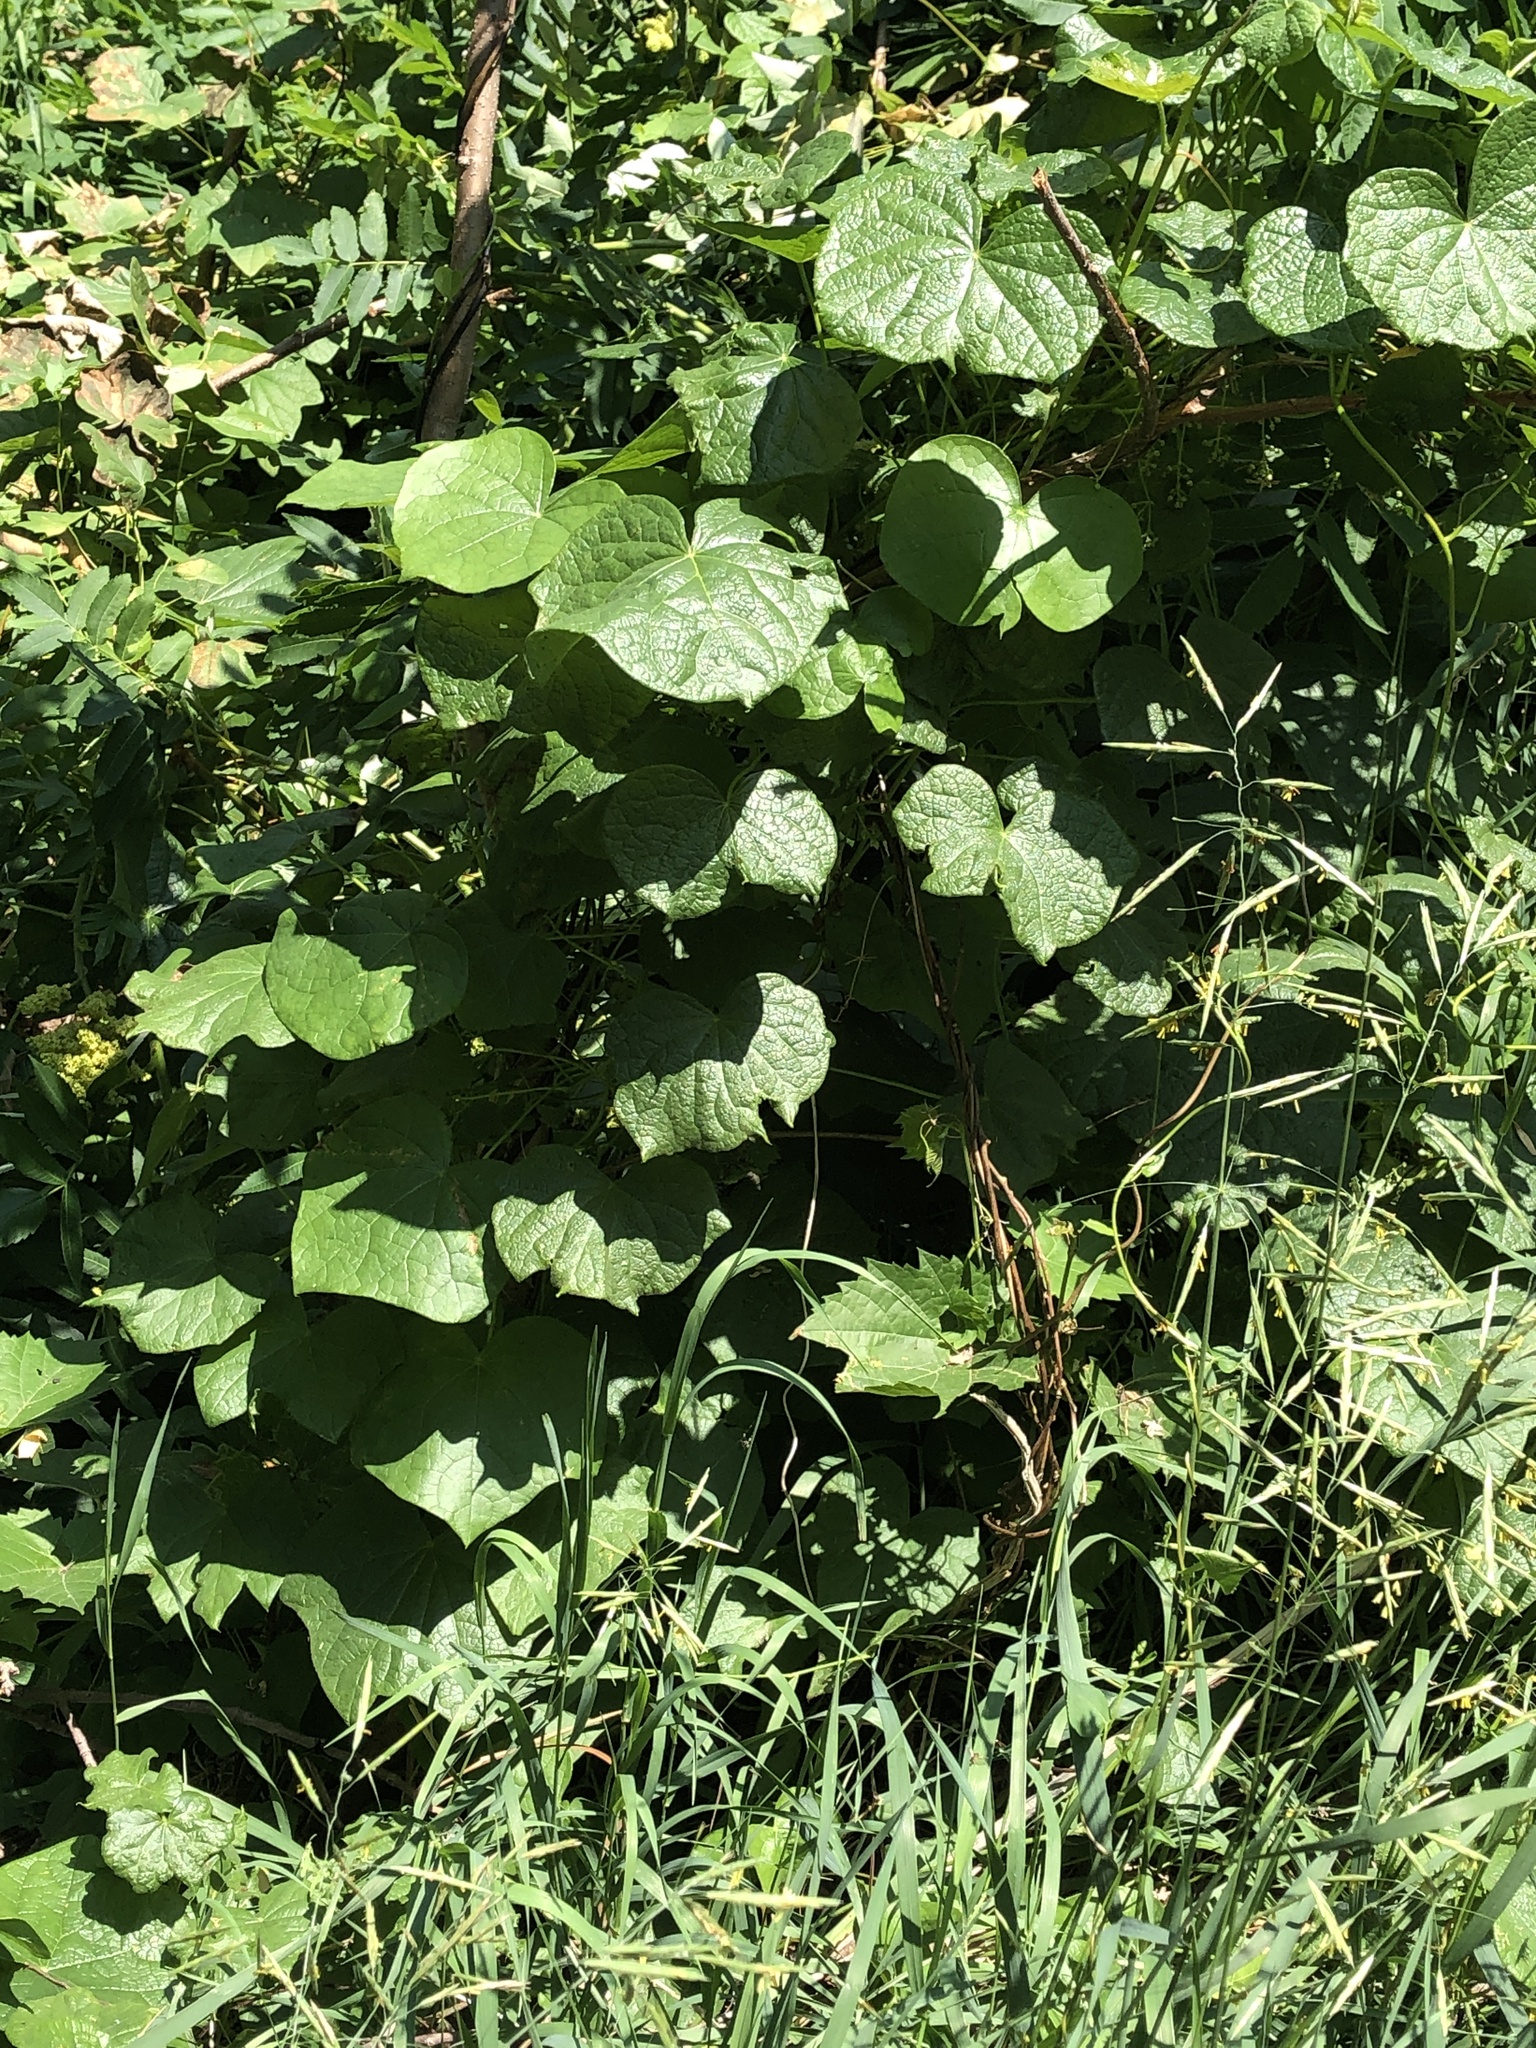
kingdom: Plantae
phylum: Tracheophyta
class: Magnoliopsida
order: Ranunculales
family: Menispermaceae
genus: Menispermum
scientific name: Menispermum canadense
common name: Moonseed
